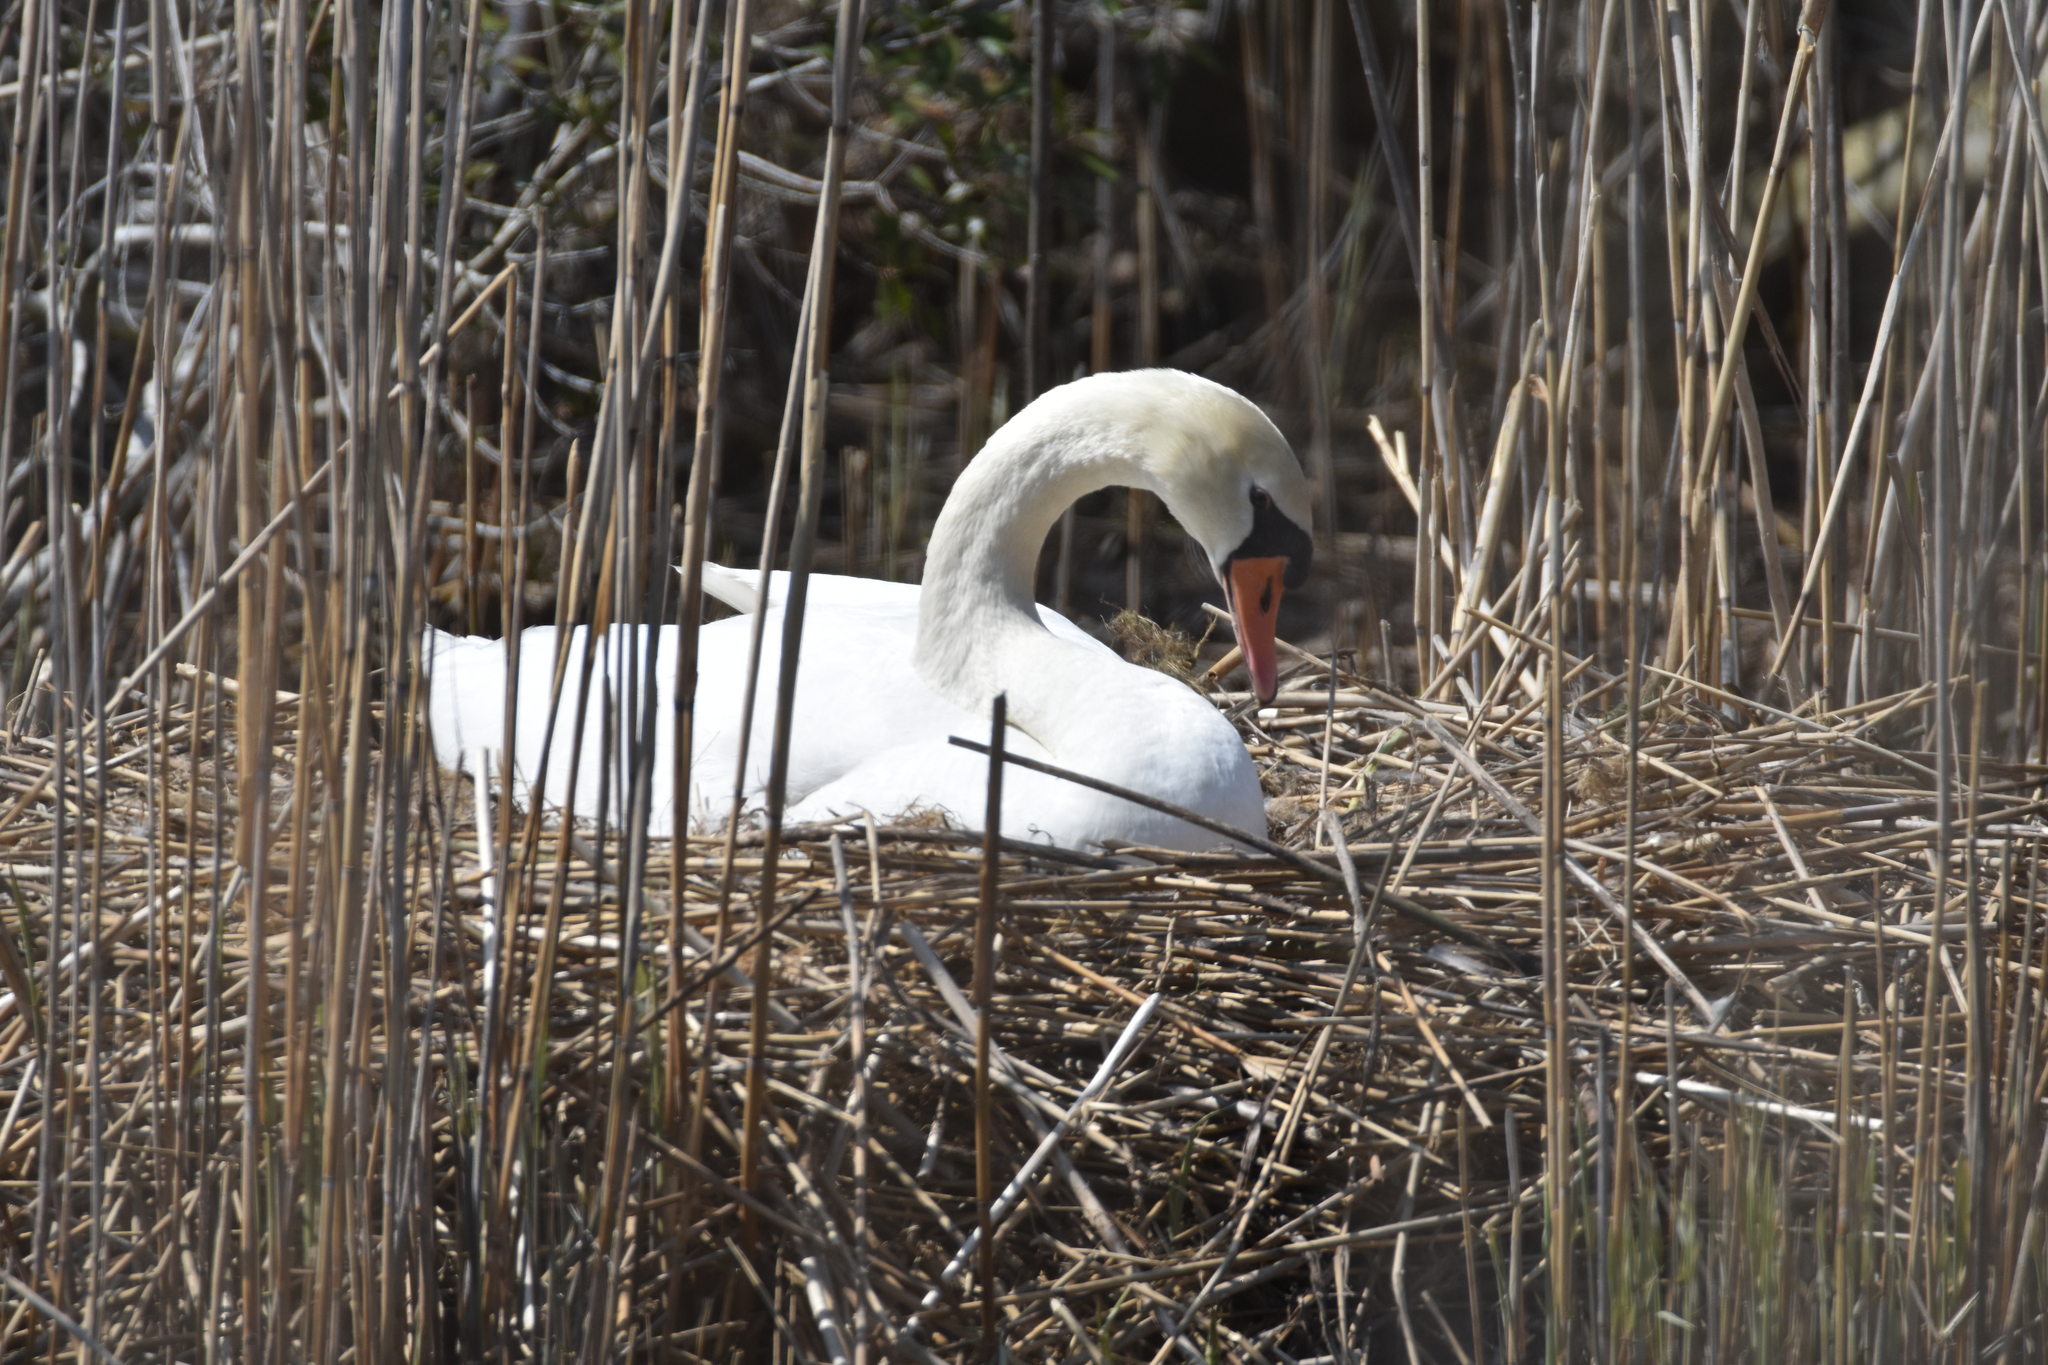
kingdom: Animalia
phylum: Chordata
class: Aves
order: Anseriformes
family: Anatidae
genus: Cygnus
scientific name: Cygnus olor
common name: Mute swan
